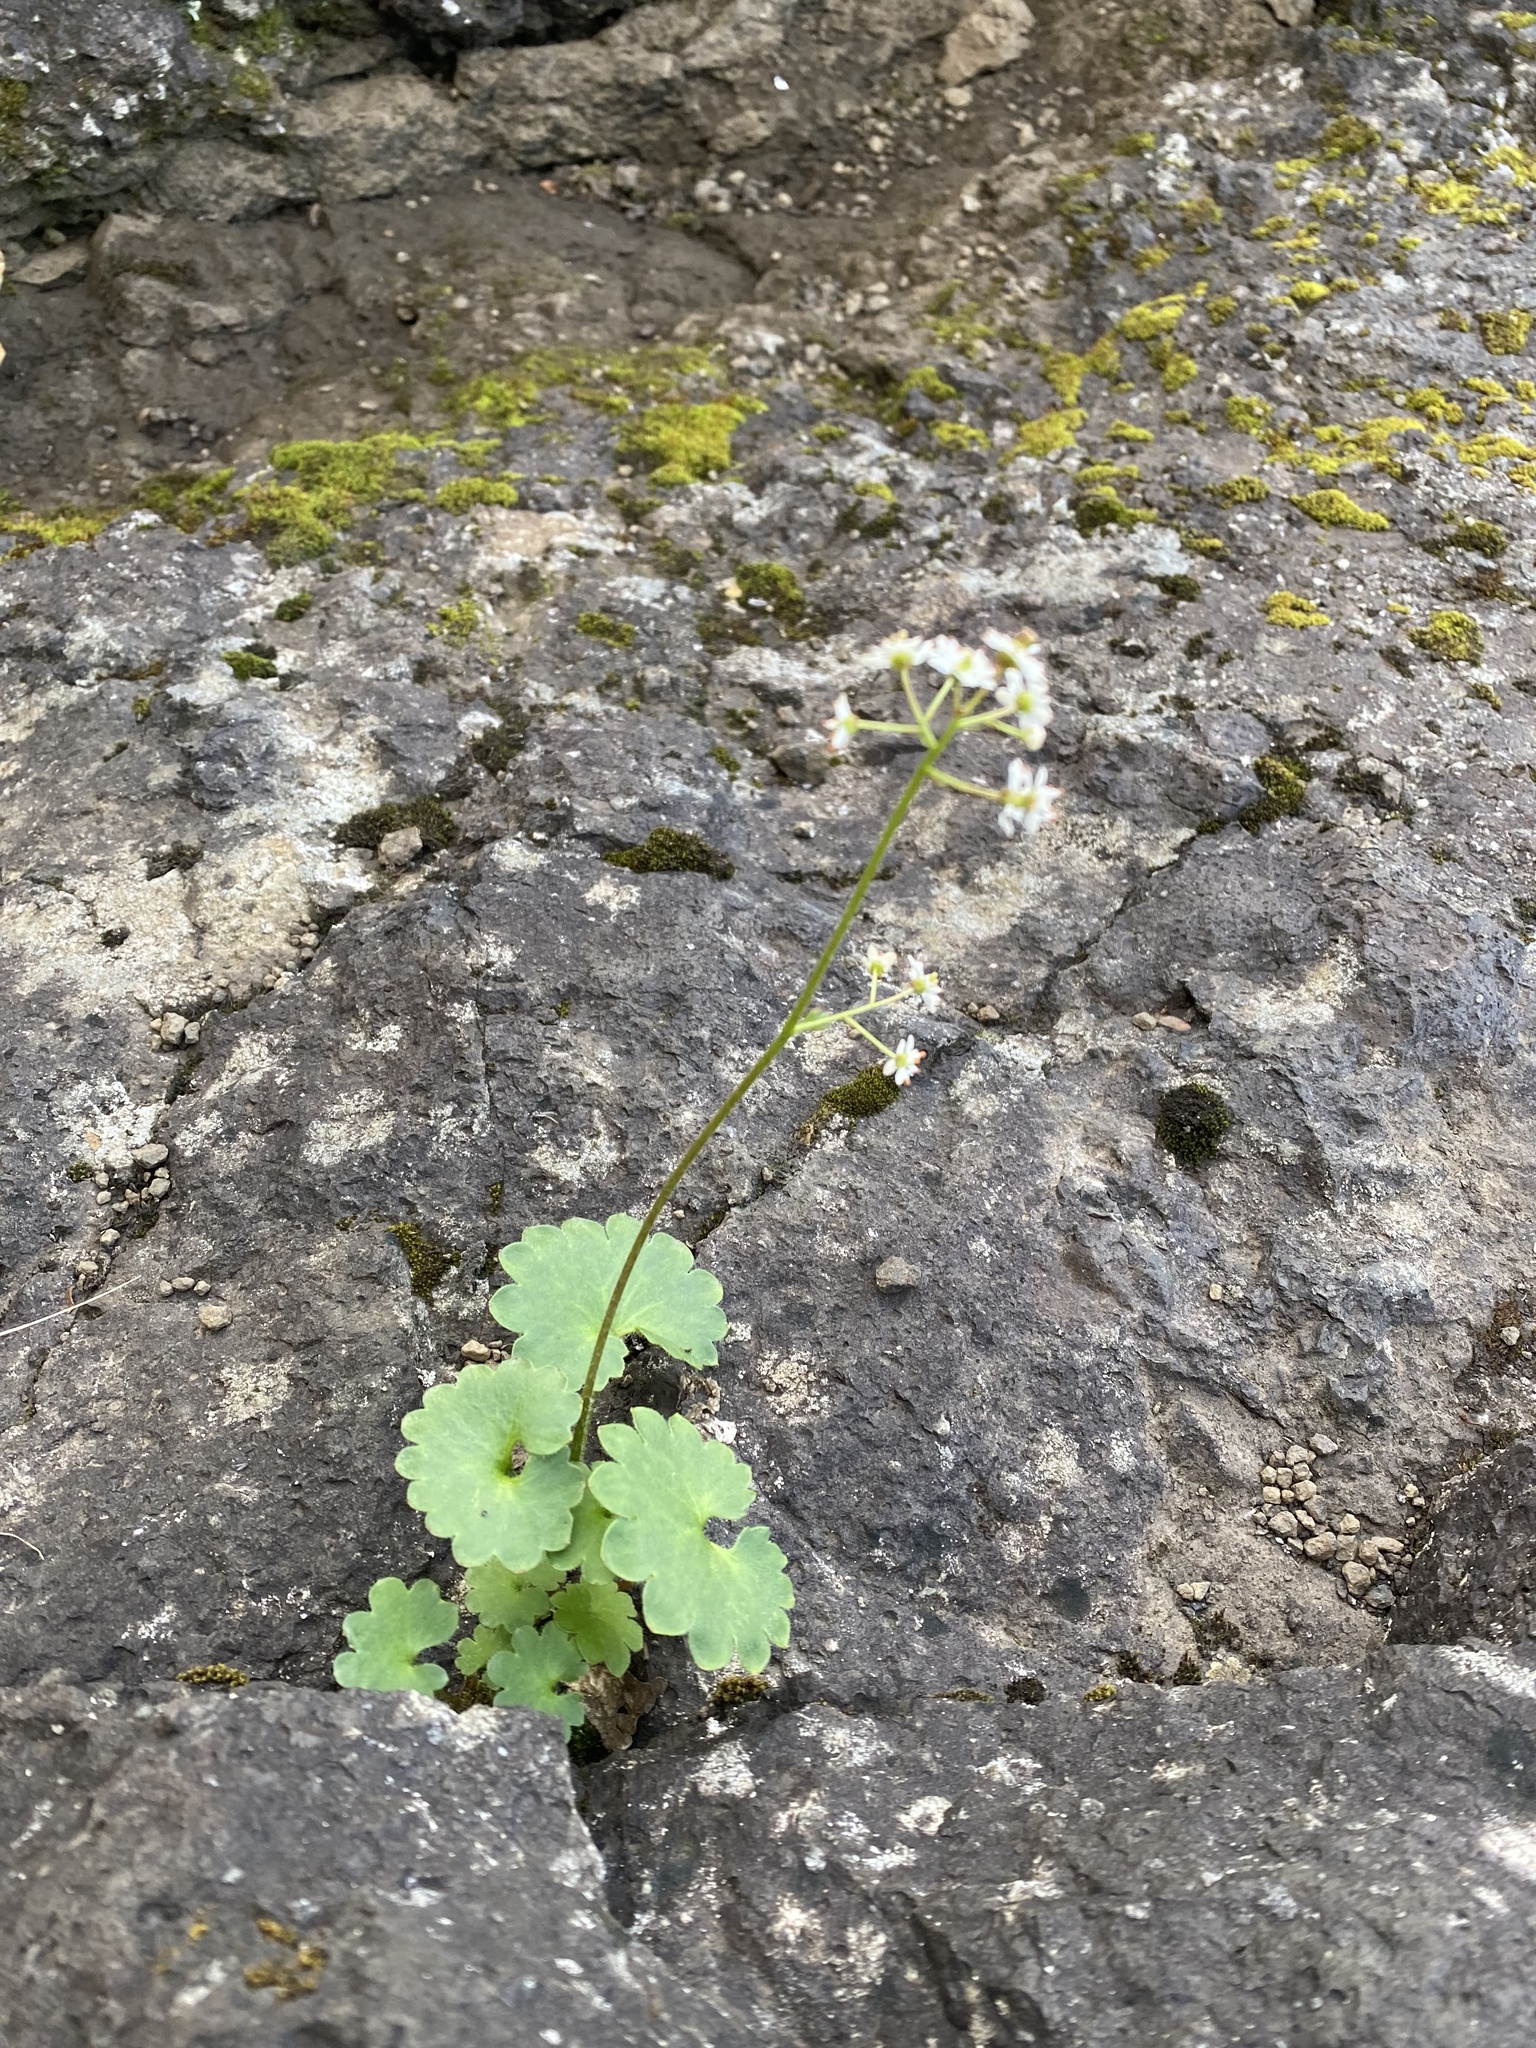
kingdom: Plantae
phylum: Tracheophyta
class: Magnoliopsida
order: Saxifragales
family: Saxifragaceae
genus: Micranthes
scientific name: Micranthes nelsoniana
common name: Nelson's saxifrage
